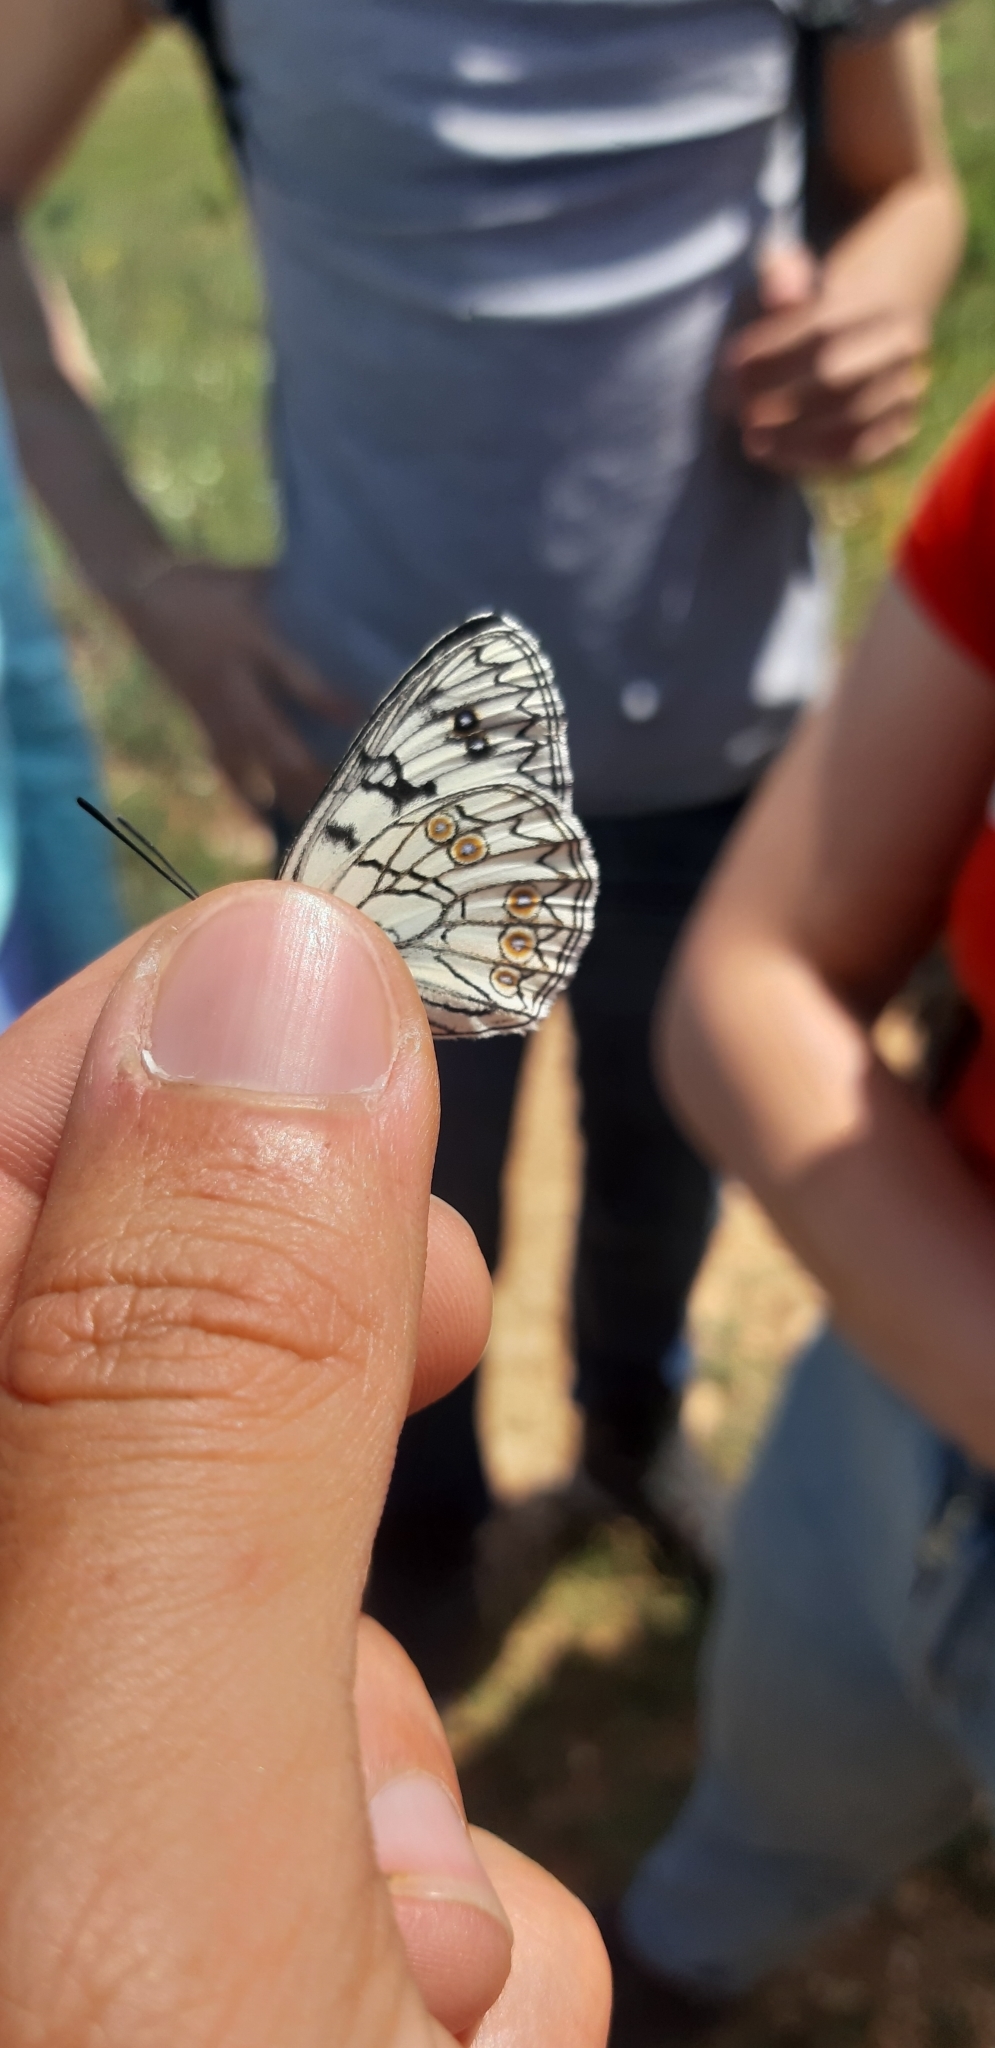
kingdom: Animalia
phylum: Arthropoda
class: Insecta
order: Lepidoptera
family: Nymphalidae
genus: Melanargia
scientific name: Melanargia arge
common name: Italian marbled white
